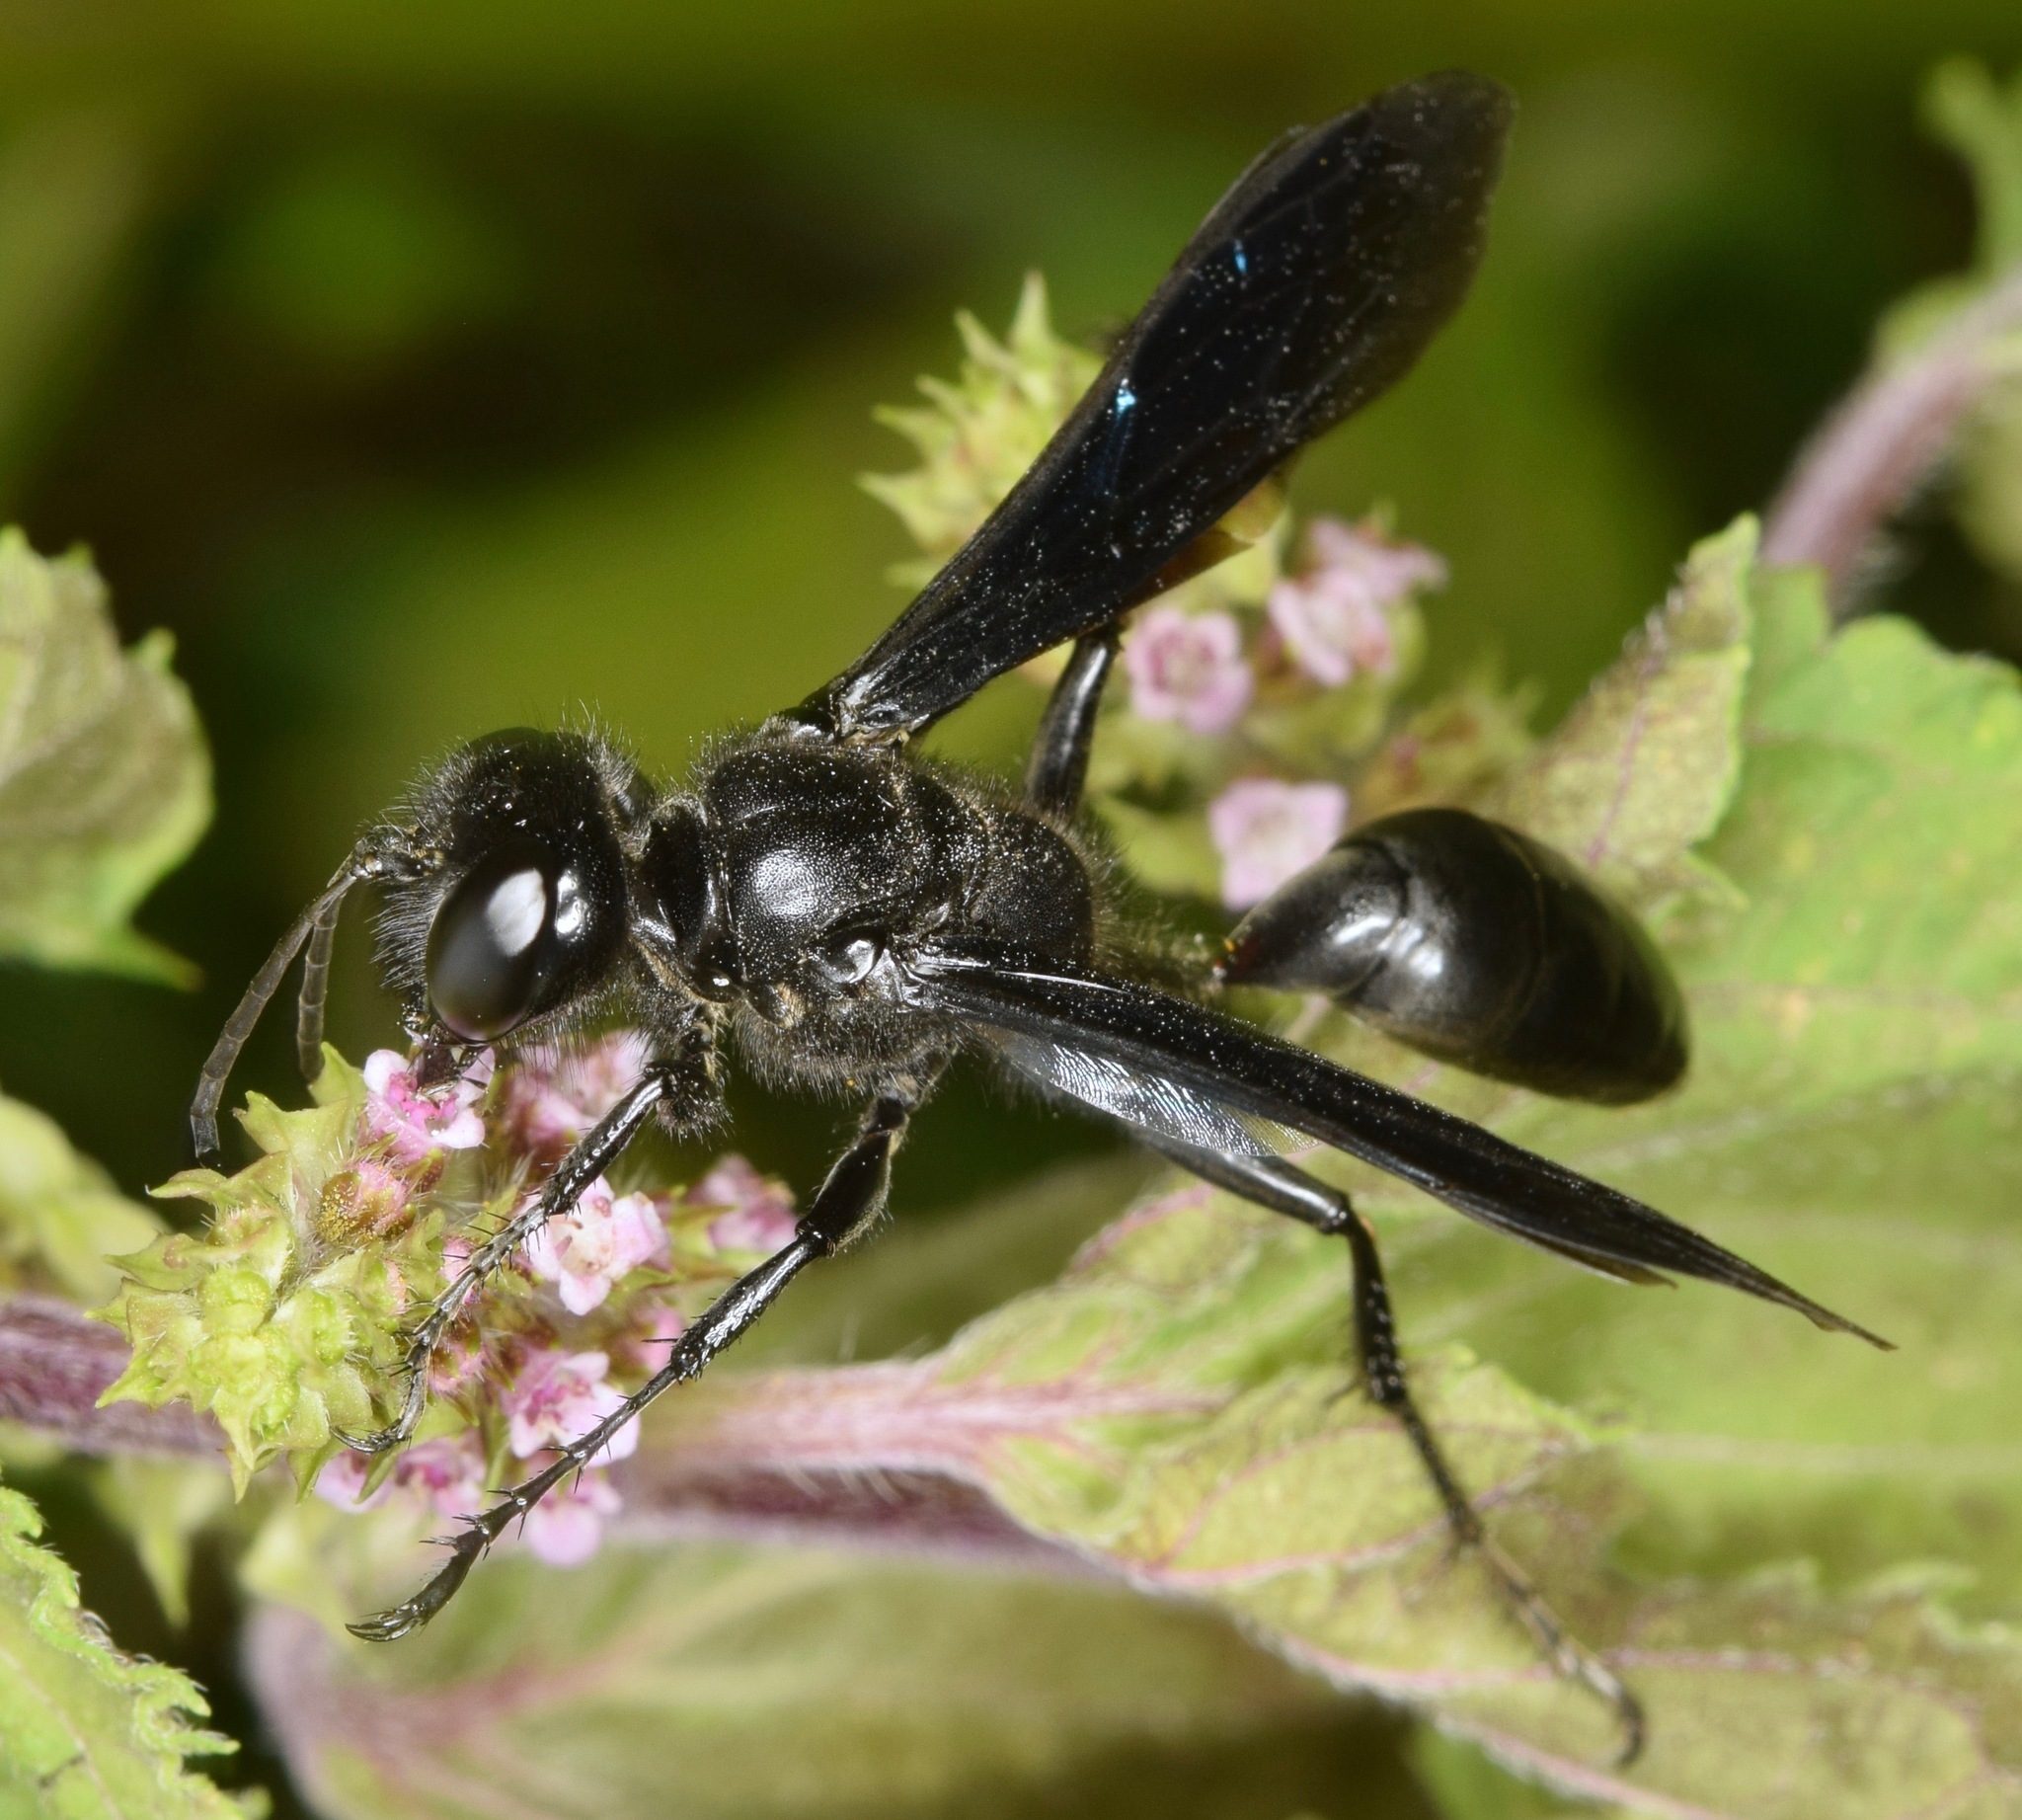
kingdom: Animalia
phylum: Arthropoda
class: Insecta
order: Hymenoptera
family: Sphecidae
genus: Isodontia
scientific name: Isodontia philadelphica
